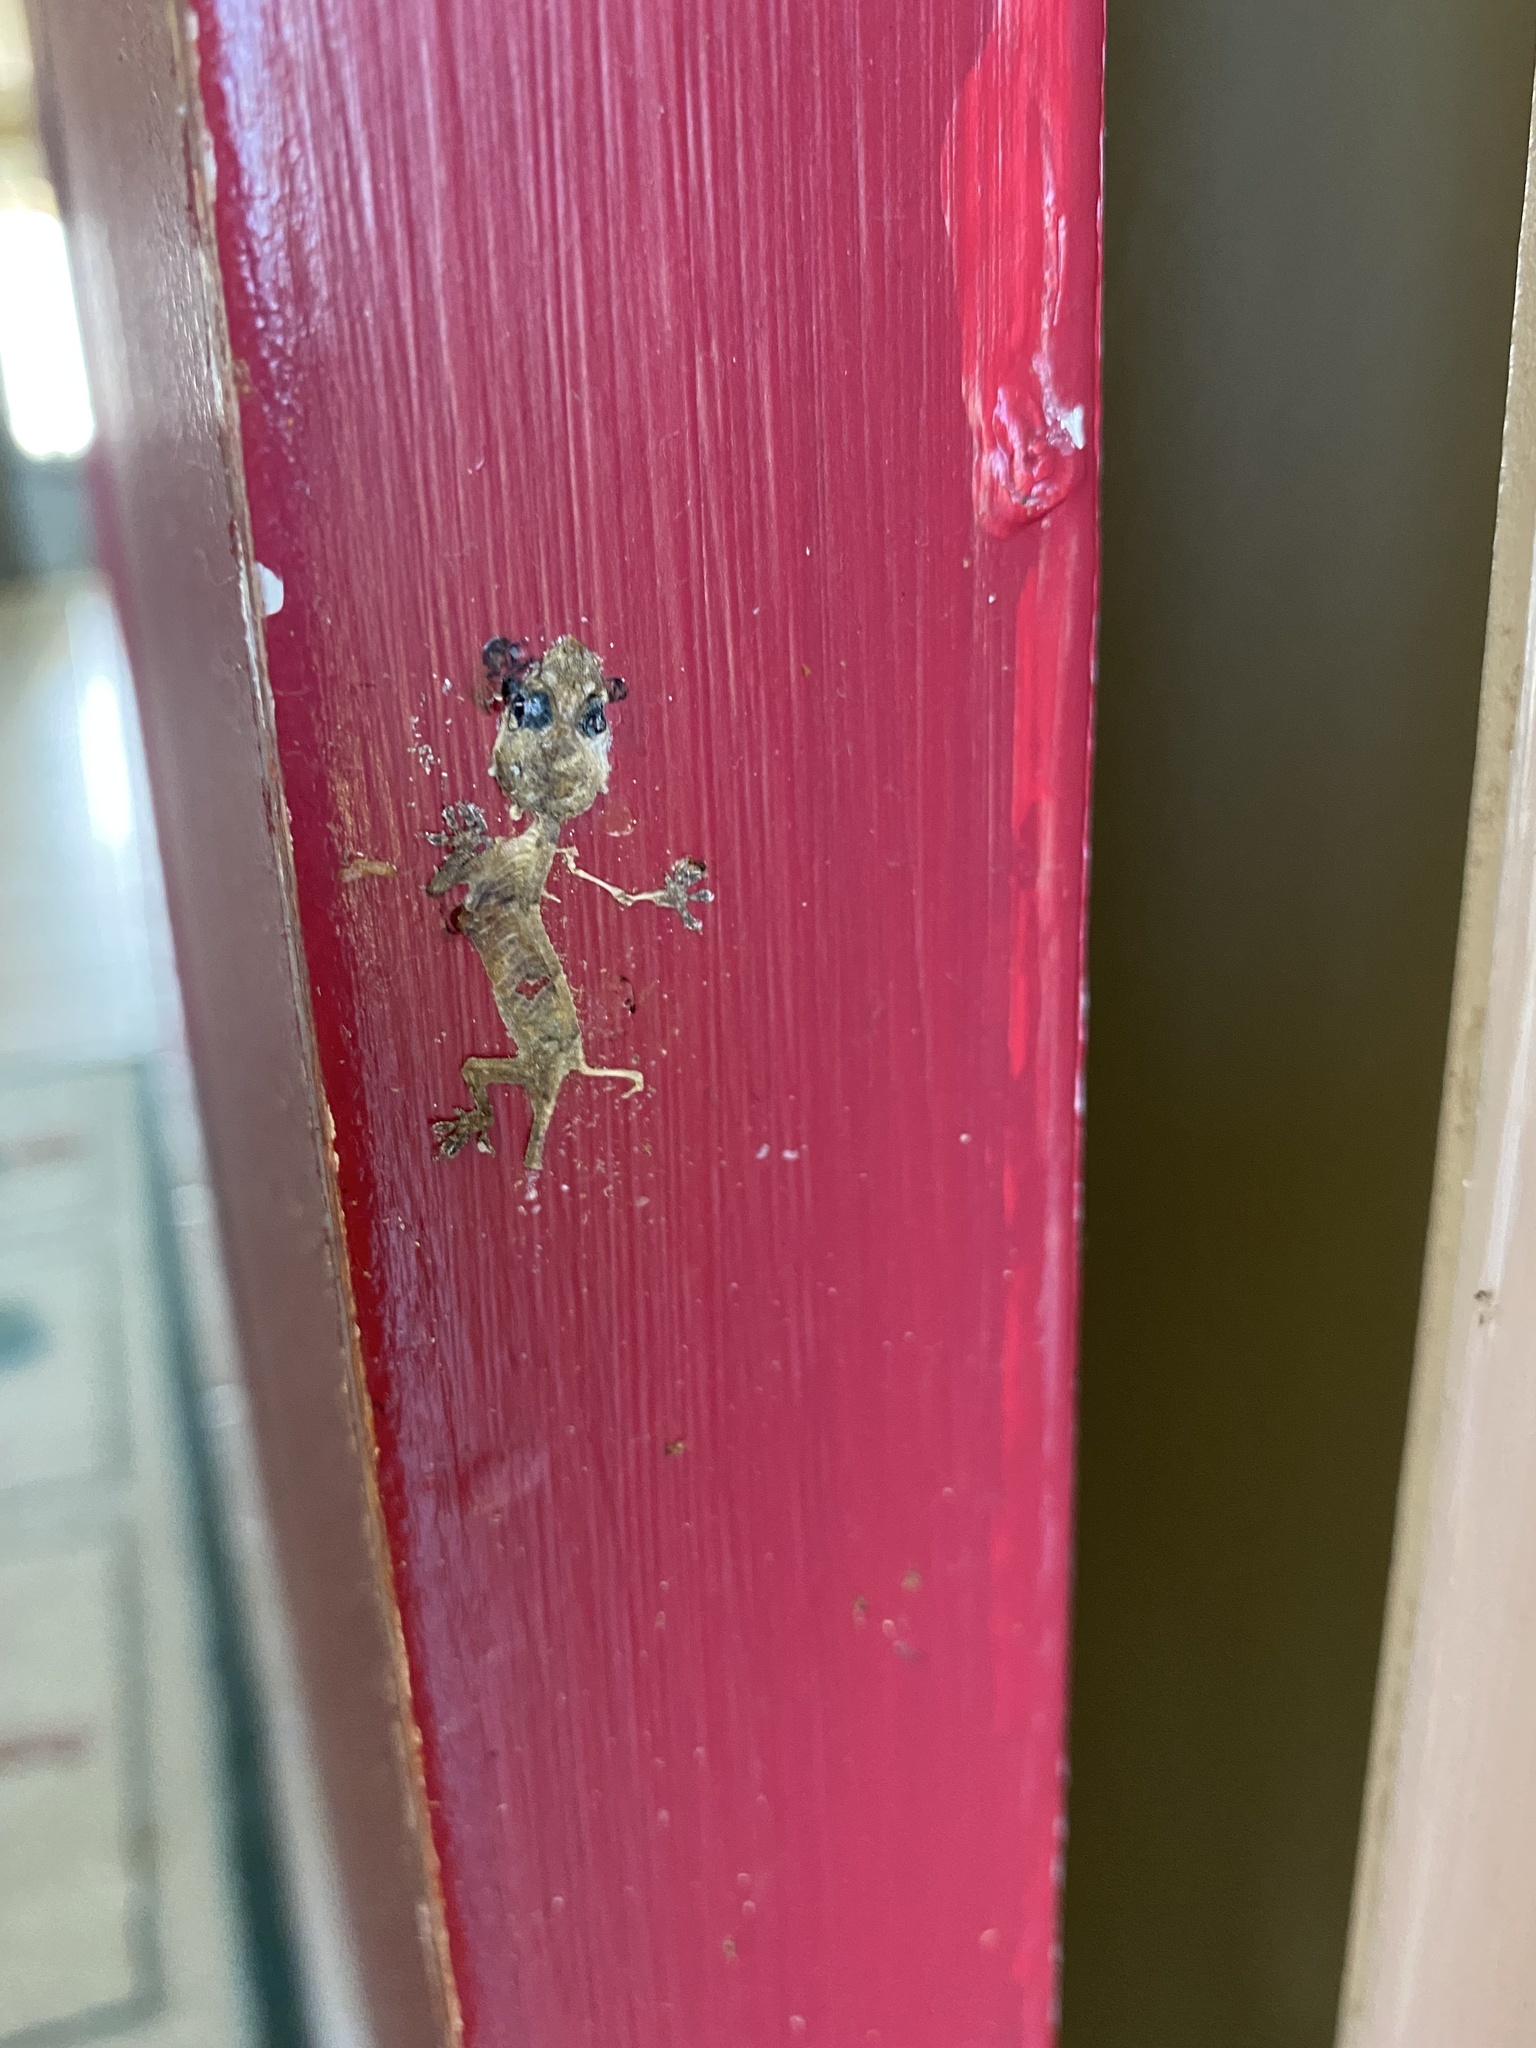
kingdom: Animalia
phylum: Chordata
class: Squamata
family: Gekkonidae
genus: Hemidactylus
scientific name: Hemidactylus mabouia
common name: House gecko
